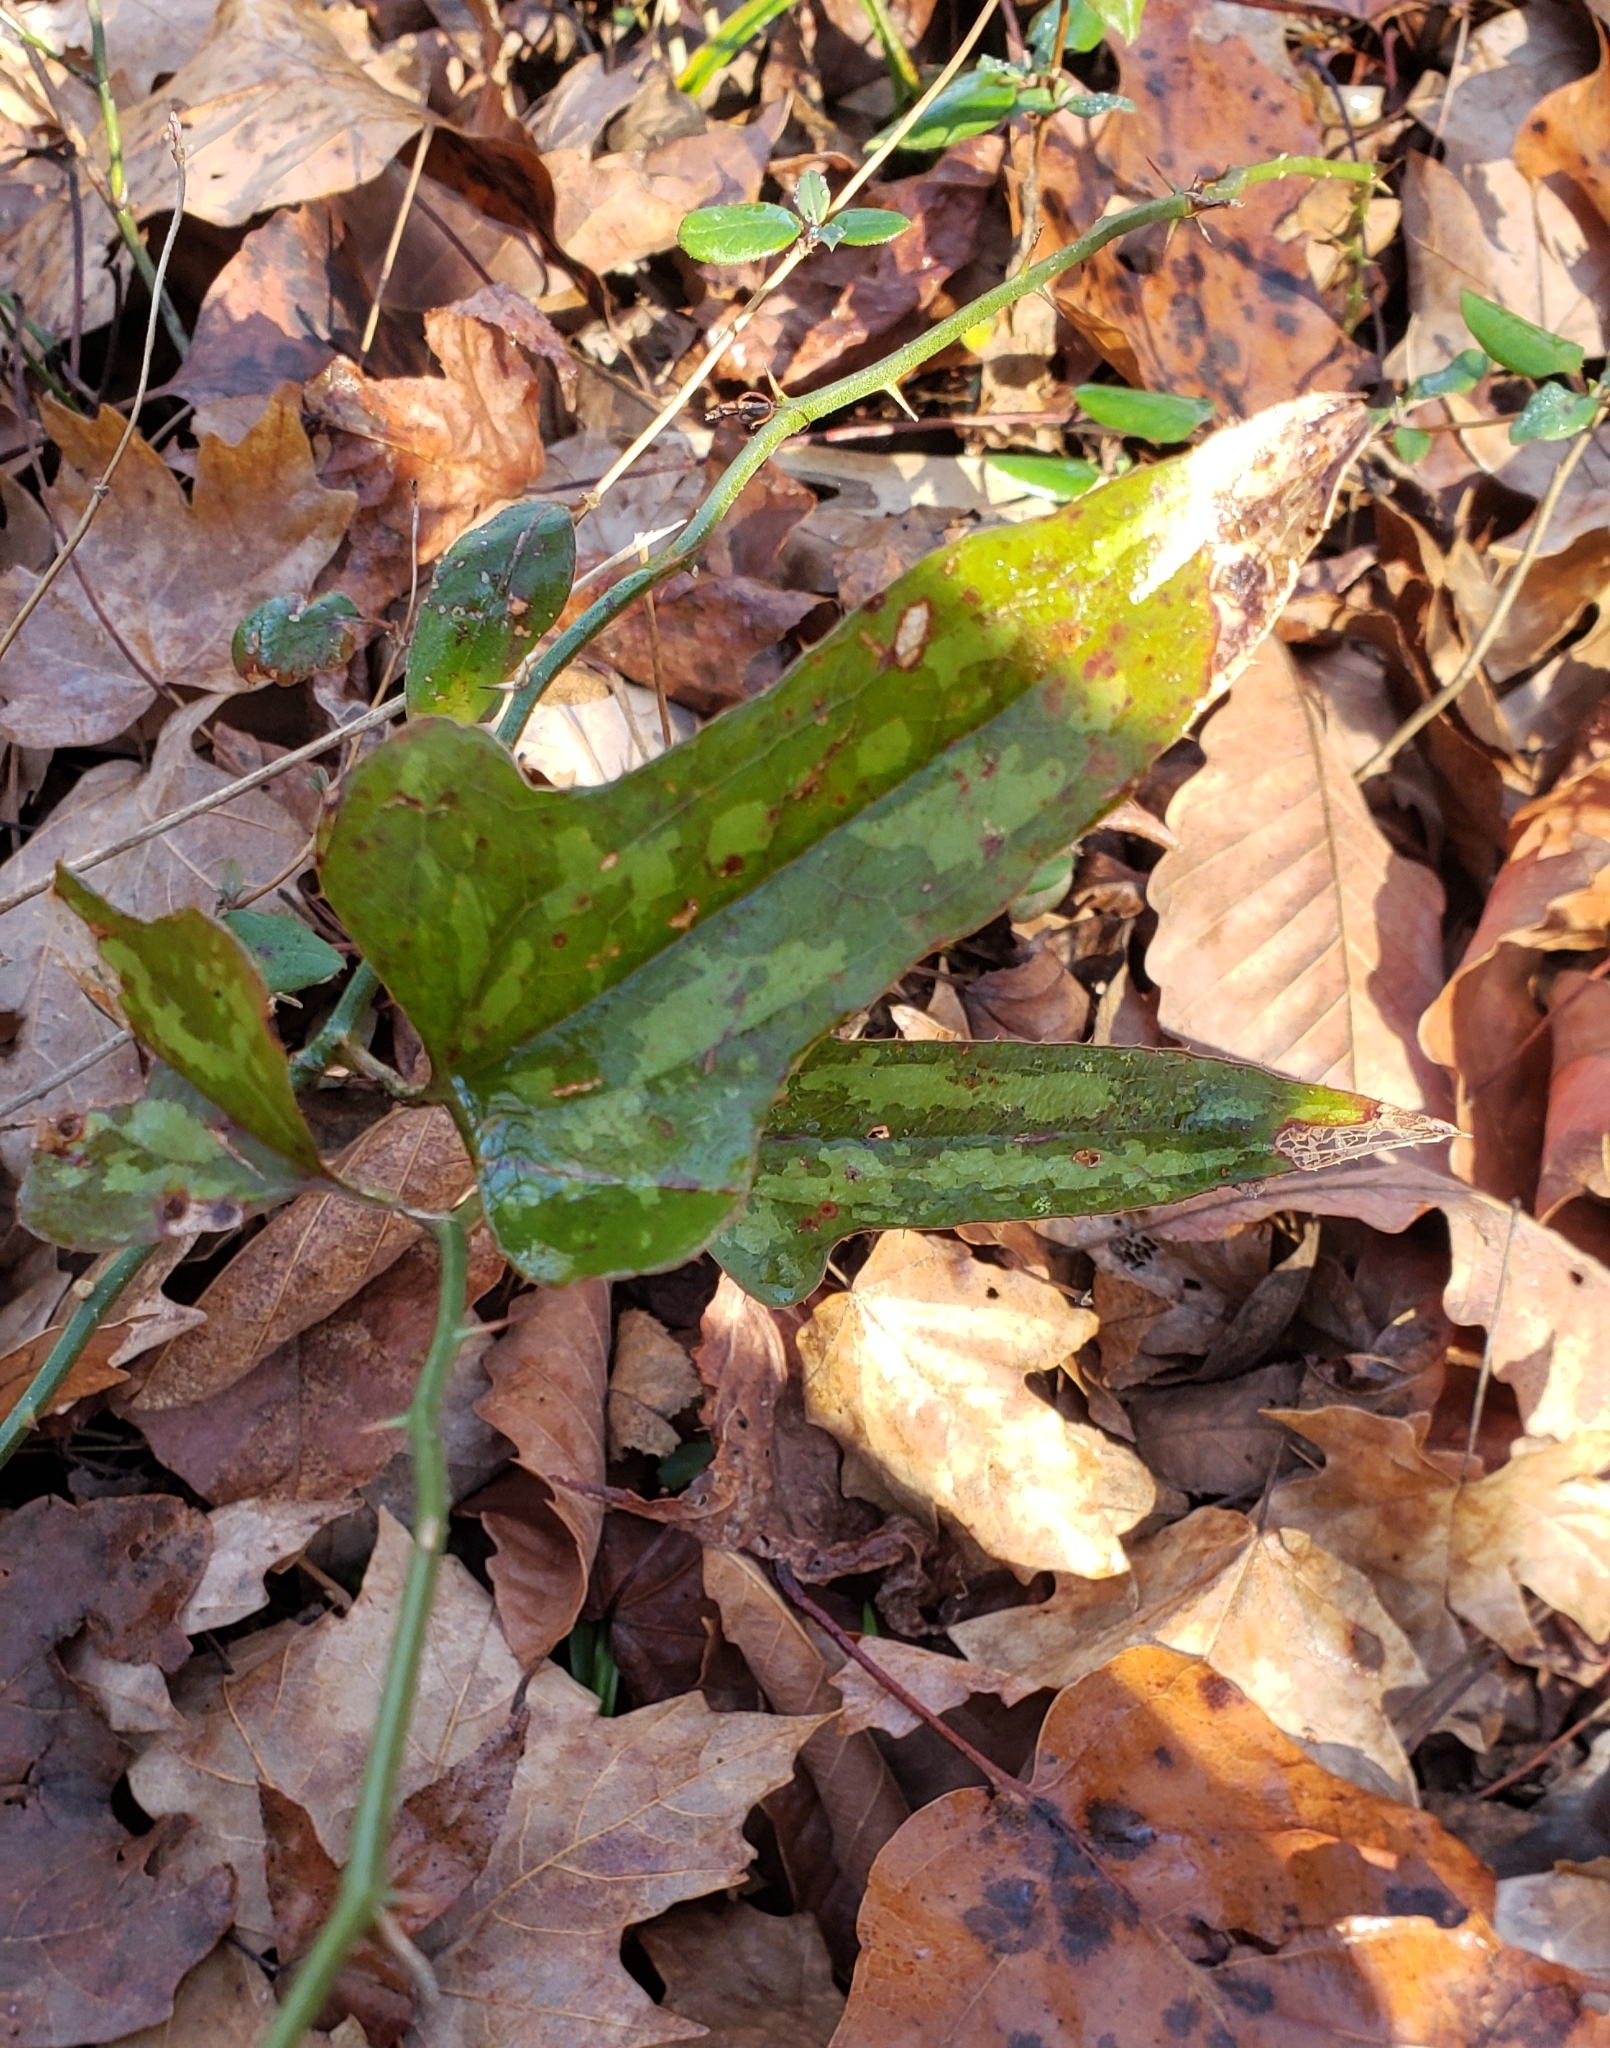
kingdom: Plantae
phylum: Tracheophyta
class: Liliopsida
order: Liliales
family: Smilacaceae
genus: Smilax
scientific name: Smilax bona-nox
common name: Catbrier
